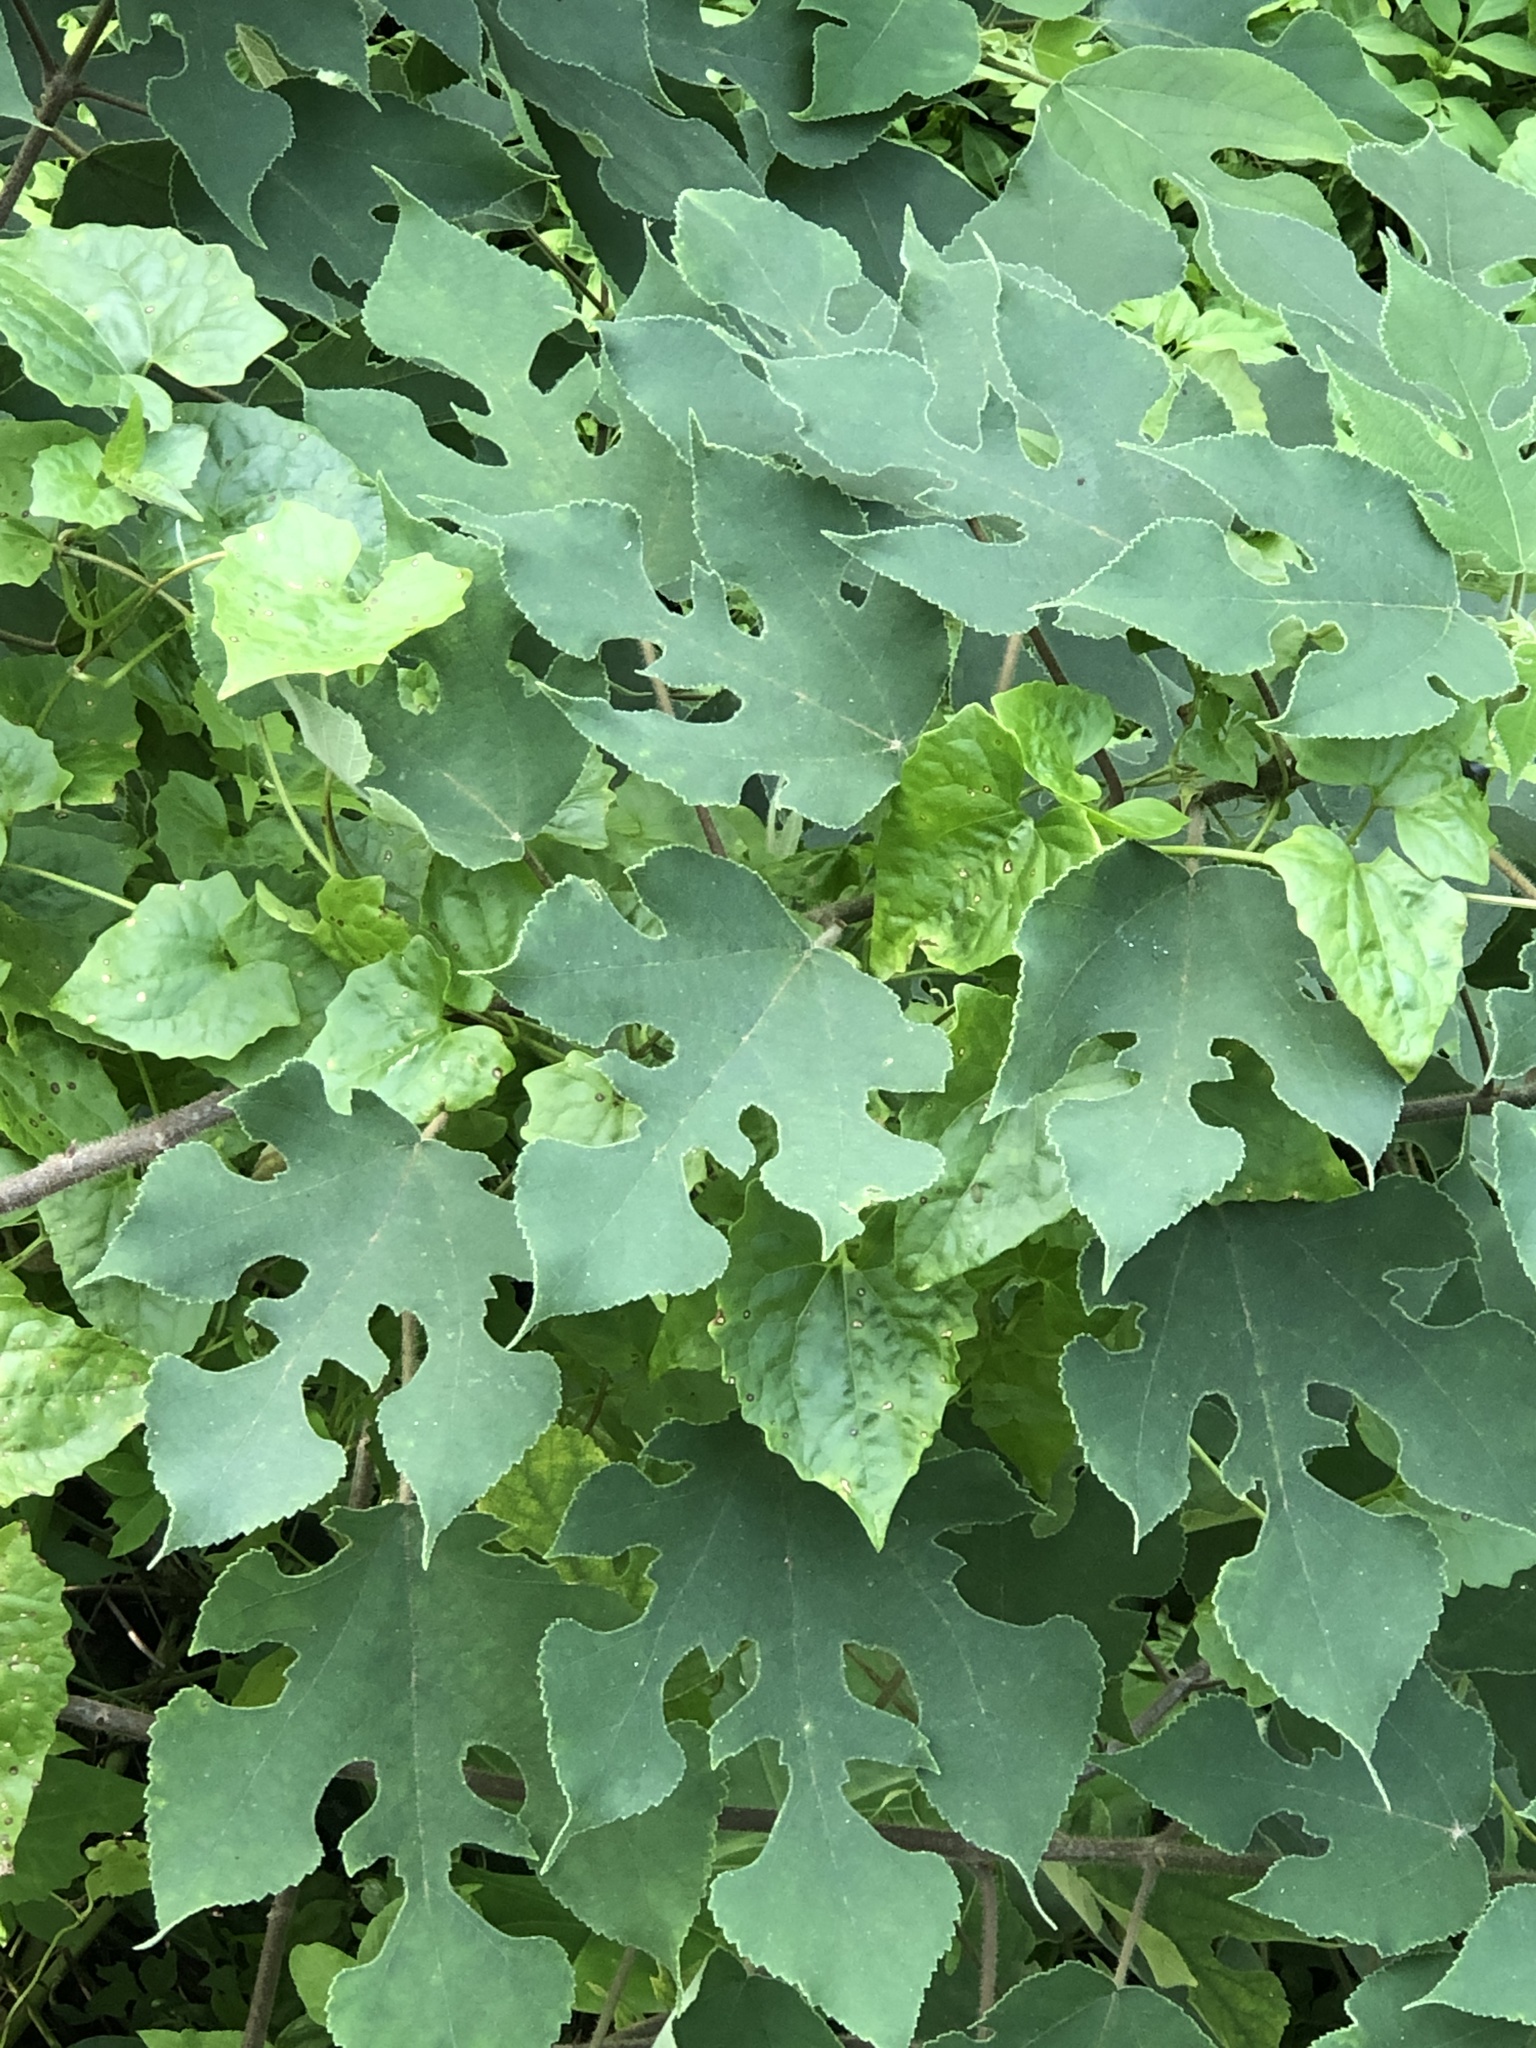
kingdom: Plantae
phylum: Tracheophyta
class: Magnoliopsida
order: Rosales
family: Moraceae
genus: Broussonetia
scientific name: Broussonetia papyrifera
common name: Paper mulberry
